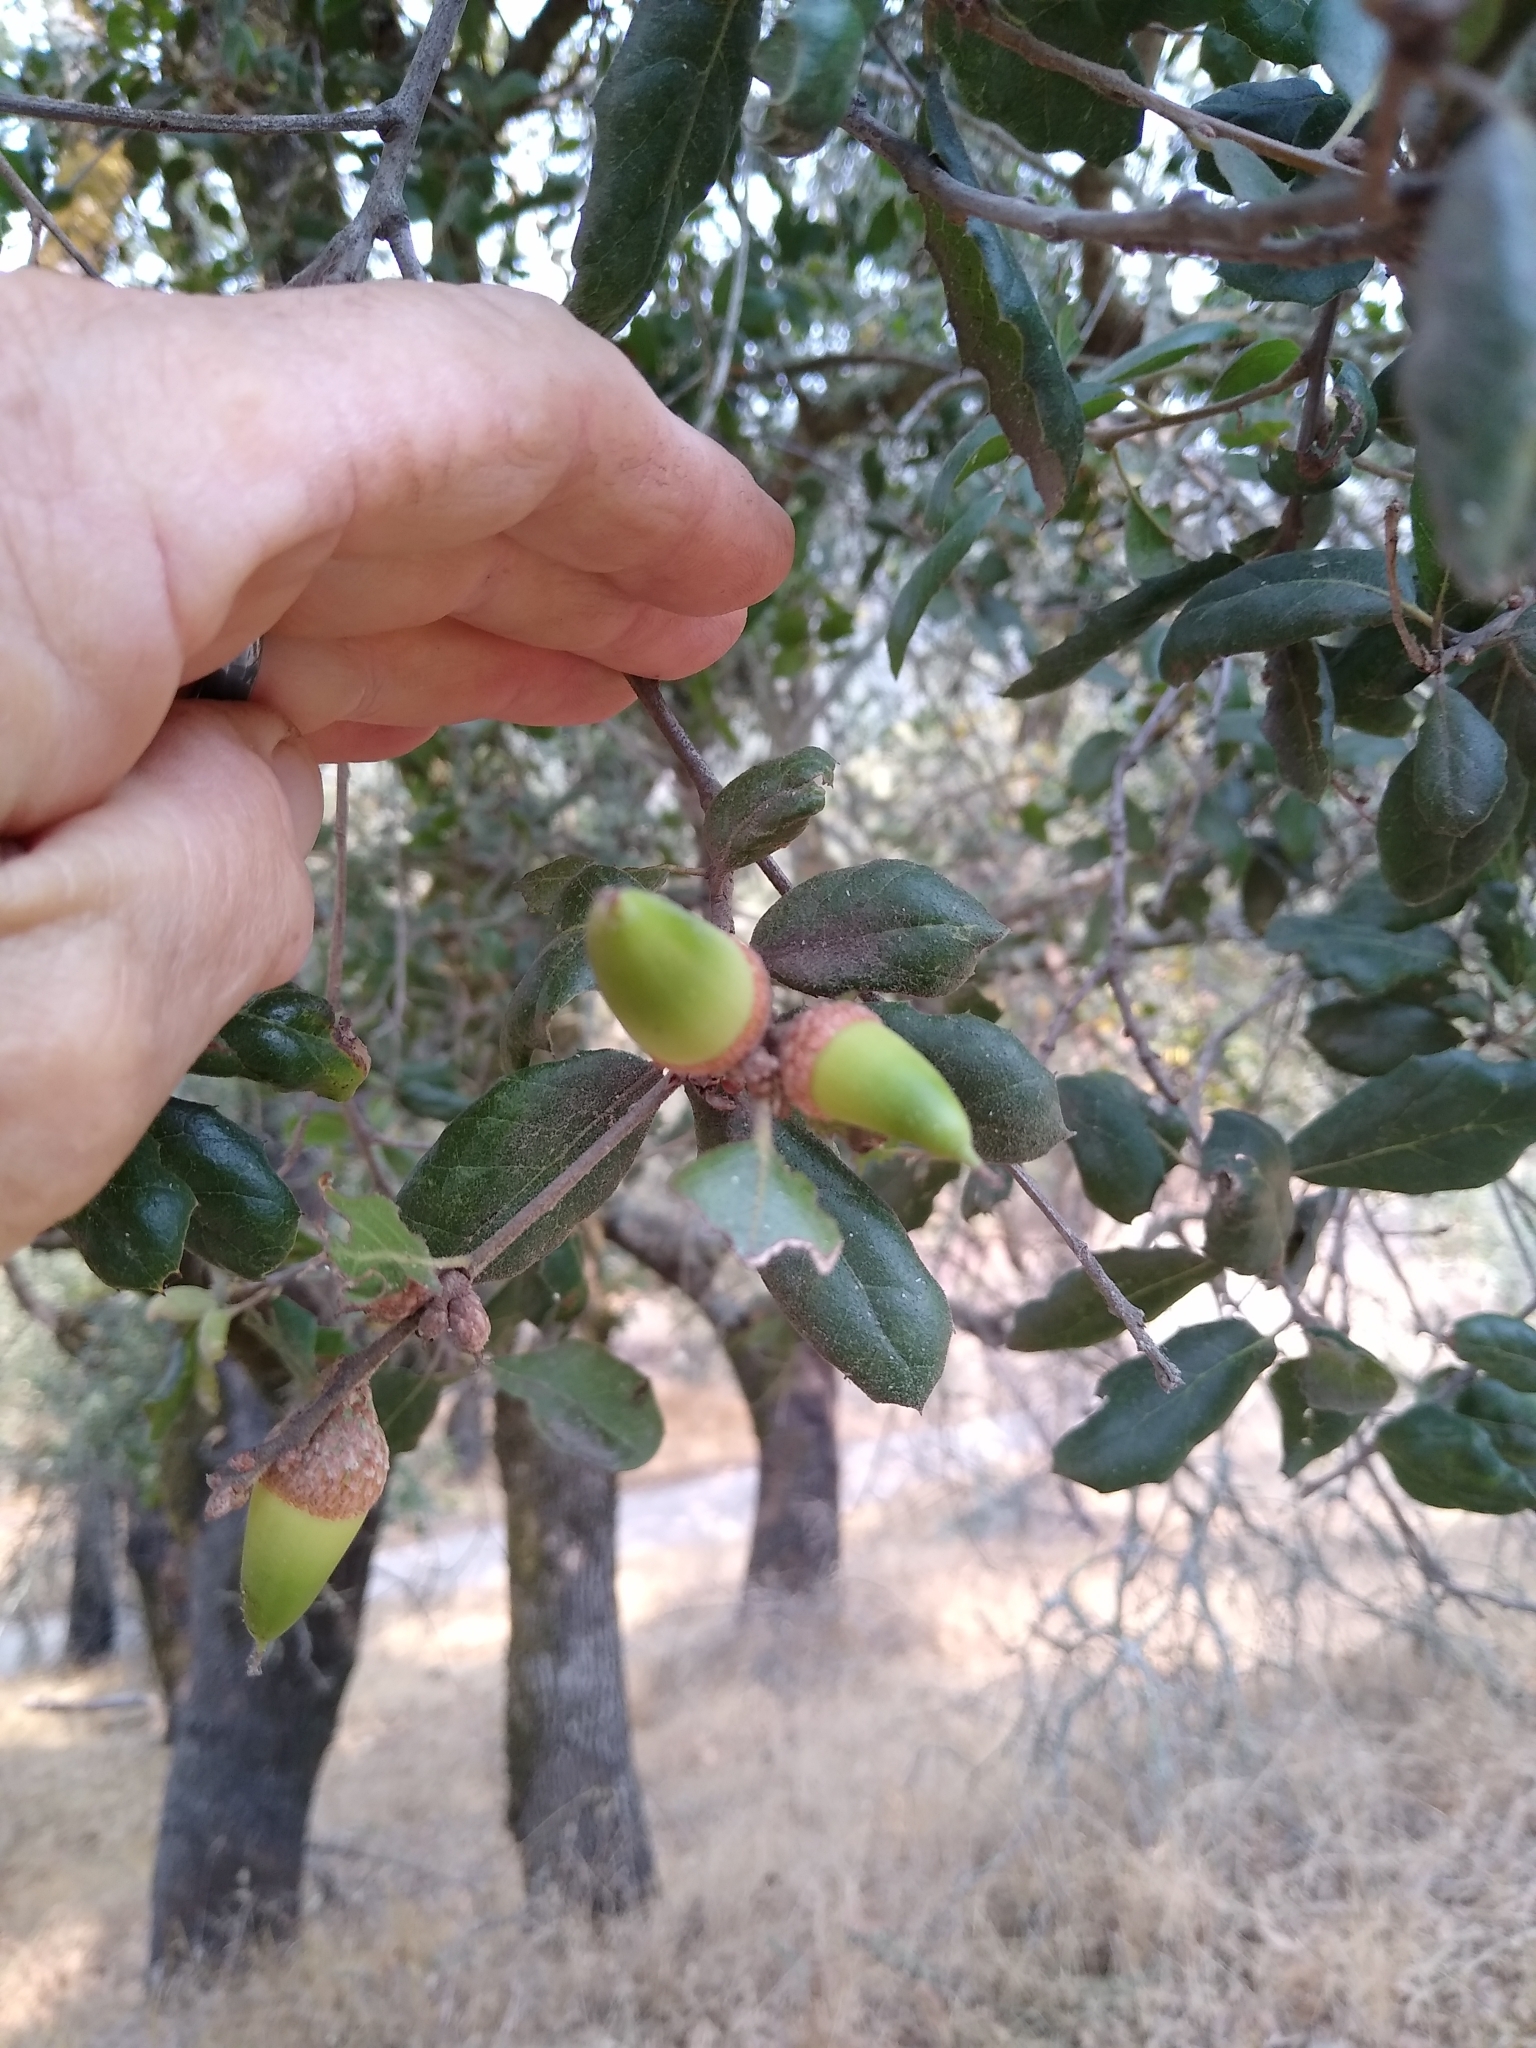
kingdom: Plantae
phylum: Tracheophyta
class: Magnoliopsida
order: Fagales
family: Fagaceae
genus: Quercus
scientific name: Quercus agrifolia
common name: California live oak
